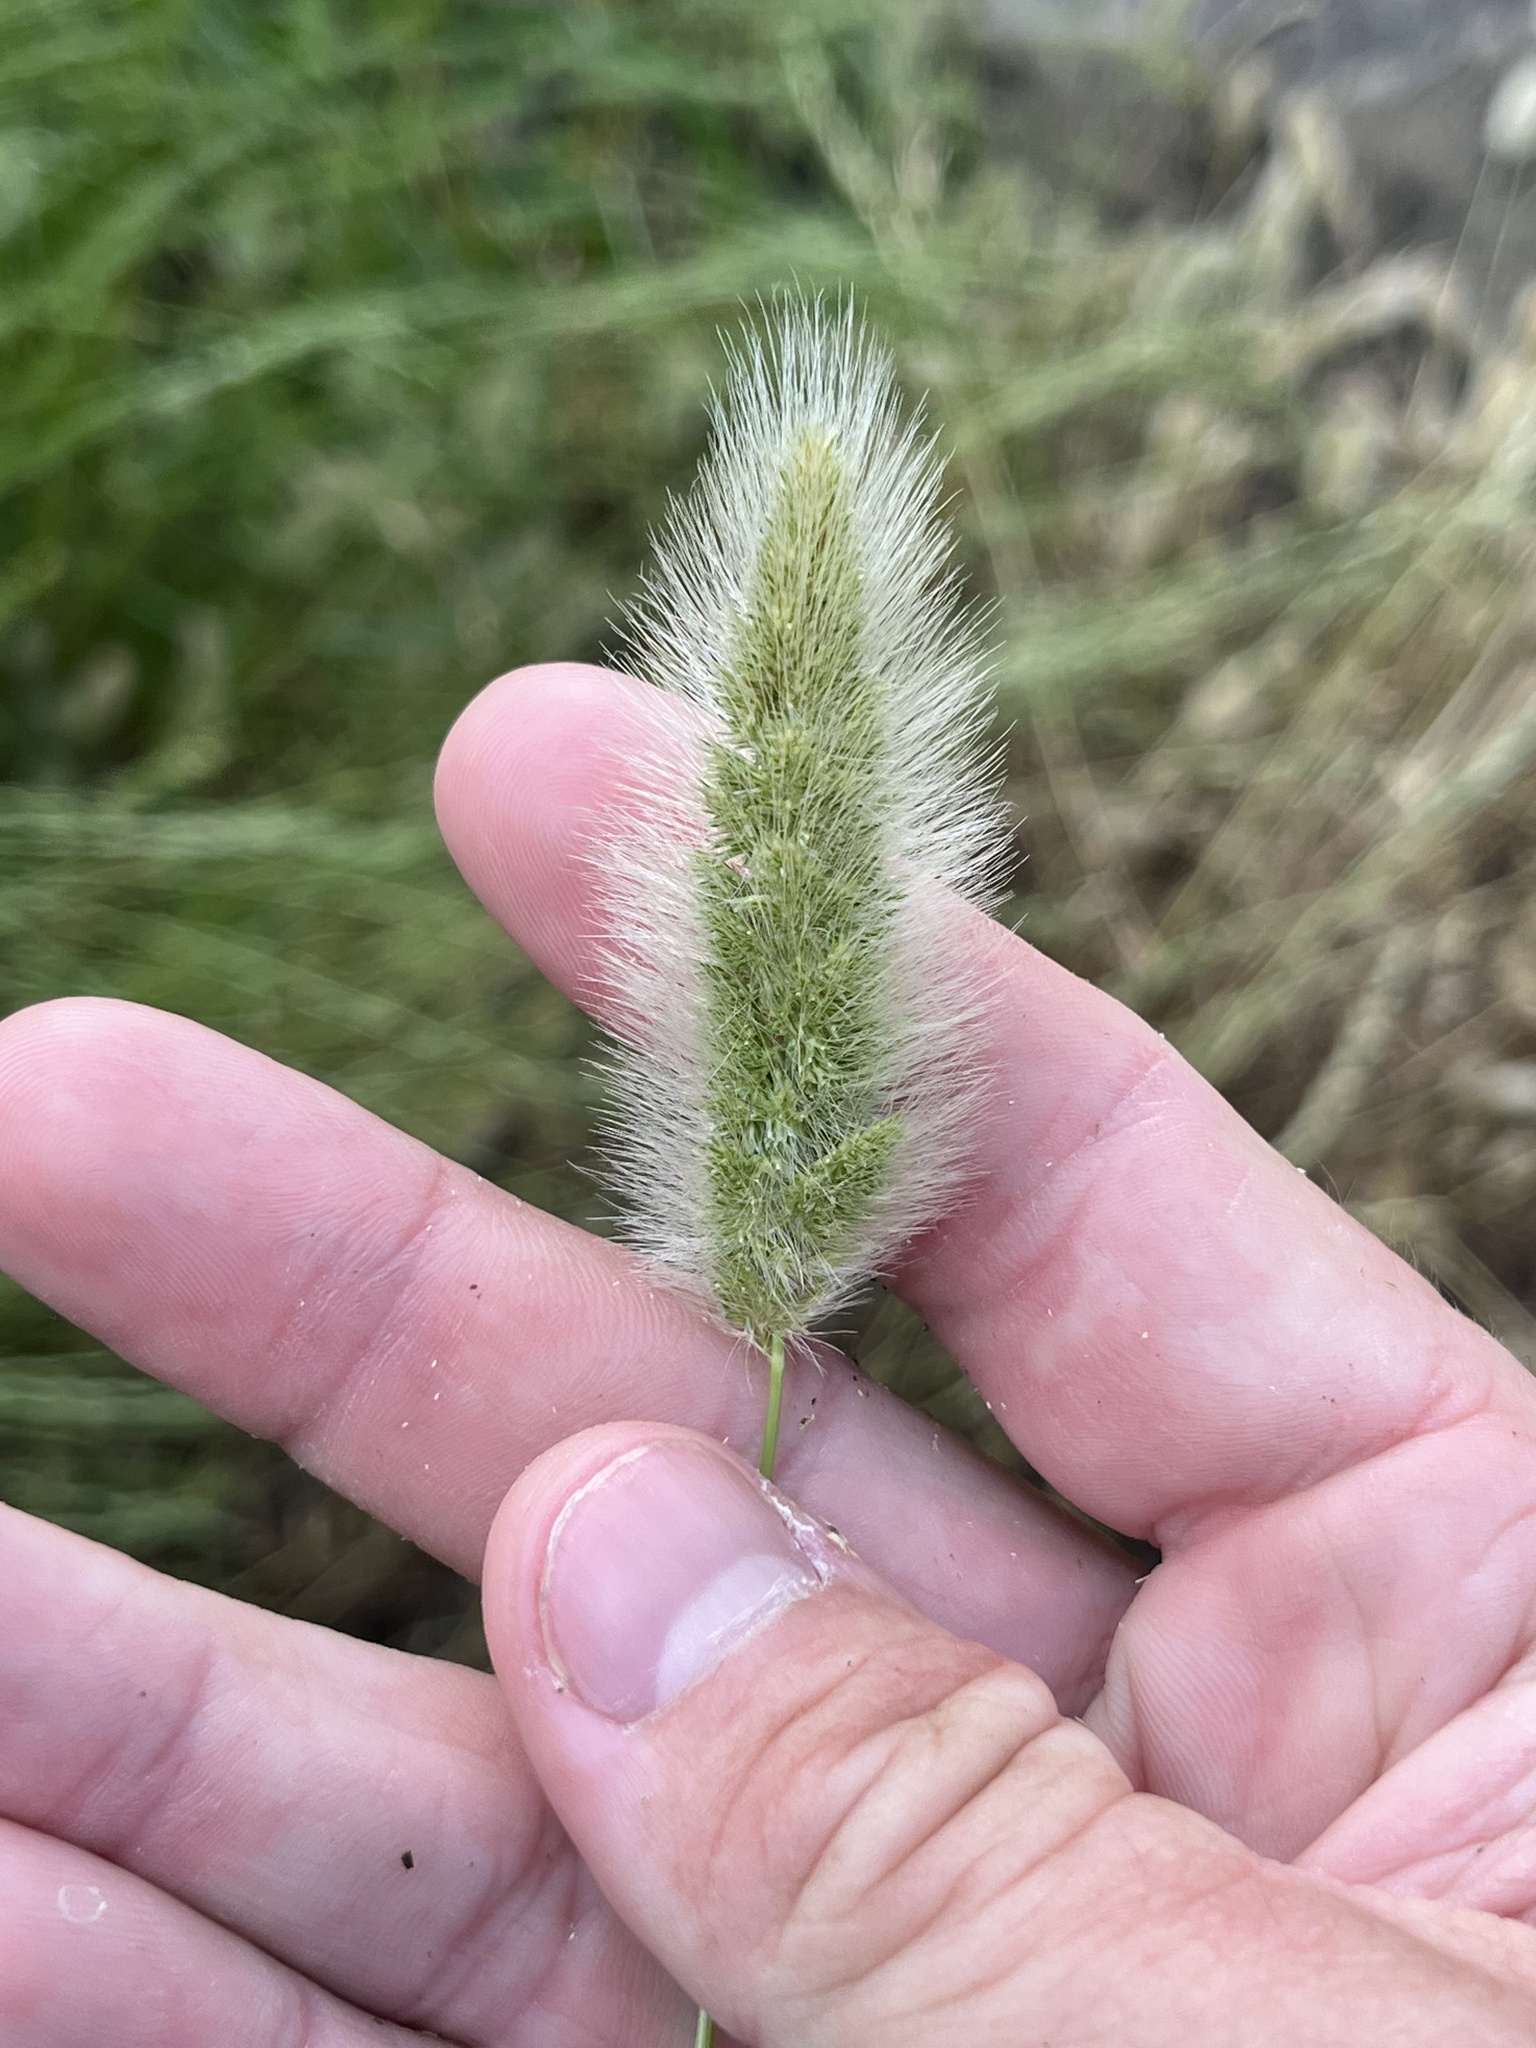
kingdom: Plantae
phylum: Tracheophyta
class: Liliopsida
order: Poales
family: Poaceae
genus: Polypogon
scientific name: Polypogon monspeliensis
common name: Annual rabbitsfoot grass
